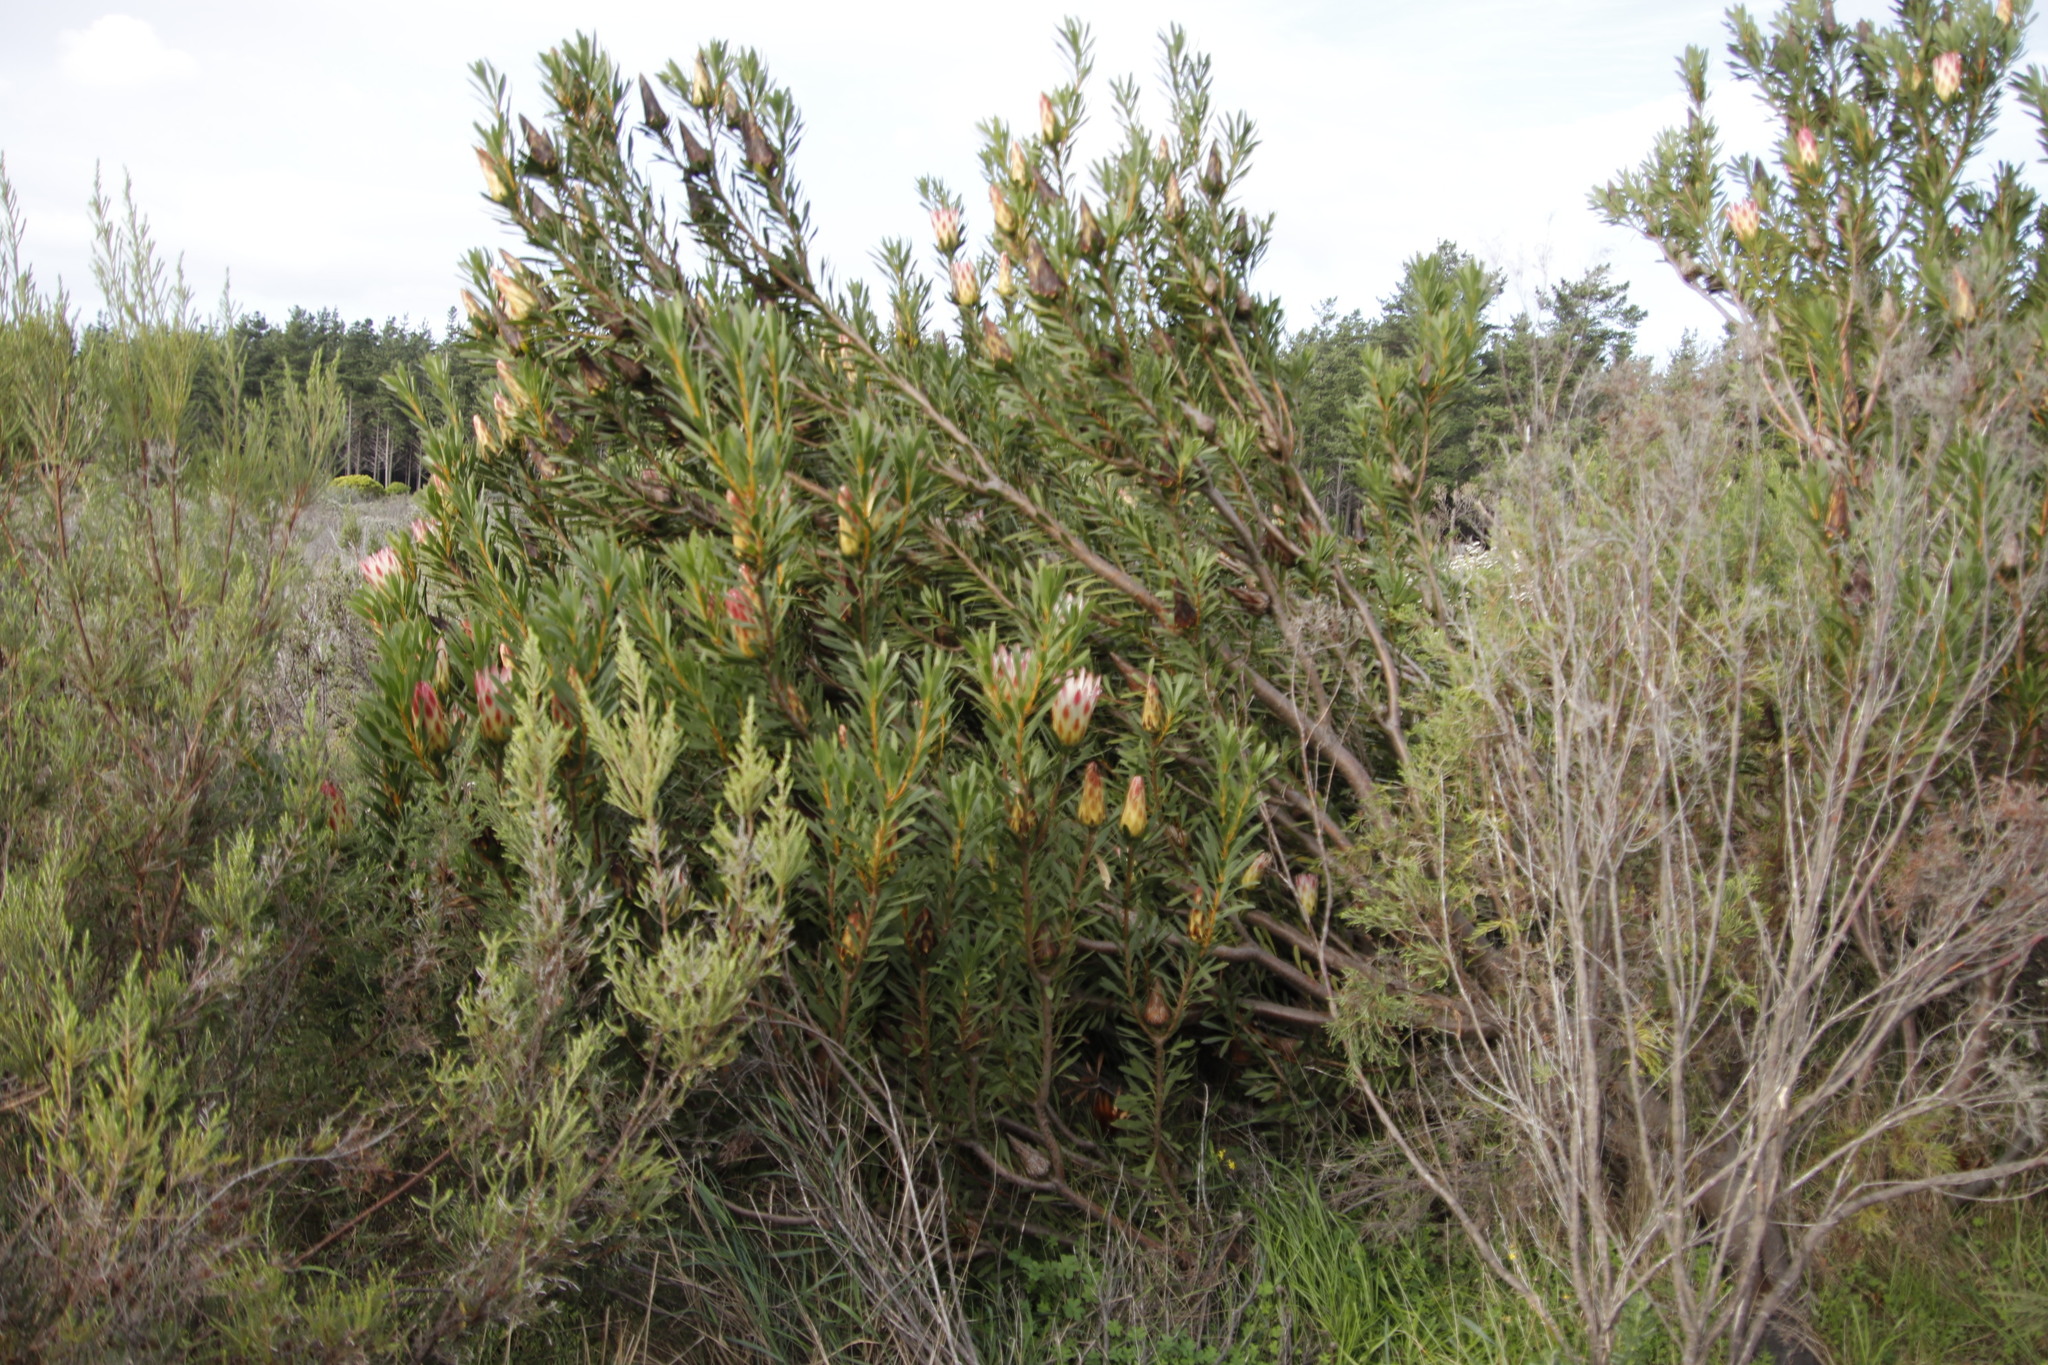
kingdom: Plantae
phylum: Tracheophyta
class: Magnoliopsida
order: Proteales
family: Proteaceae
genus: Protea
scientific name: Protea repens
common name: Sugarbush
